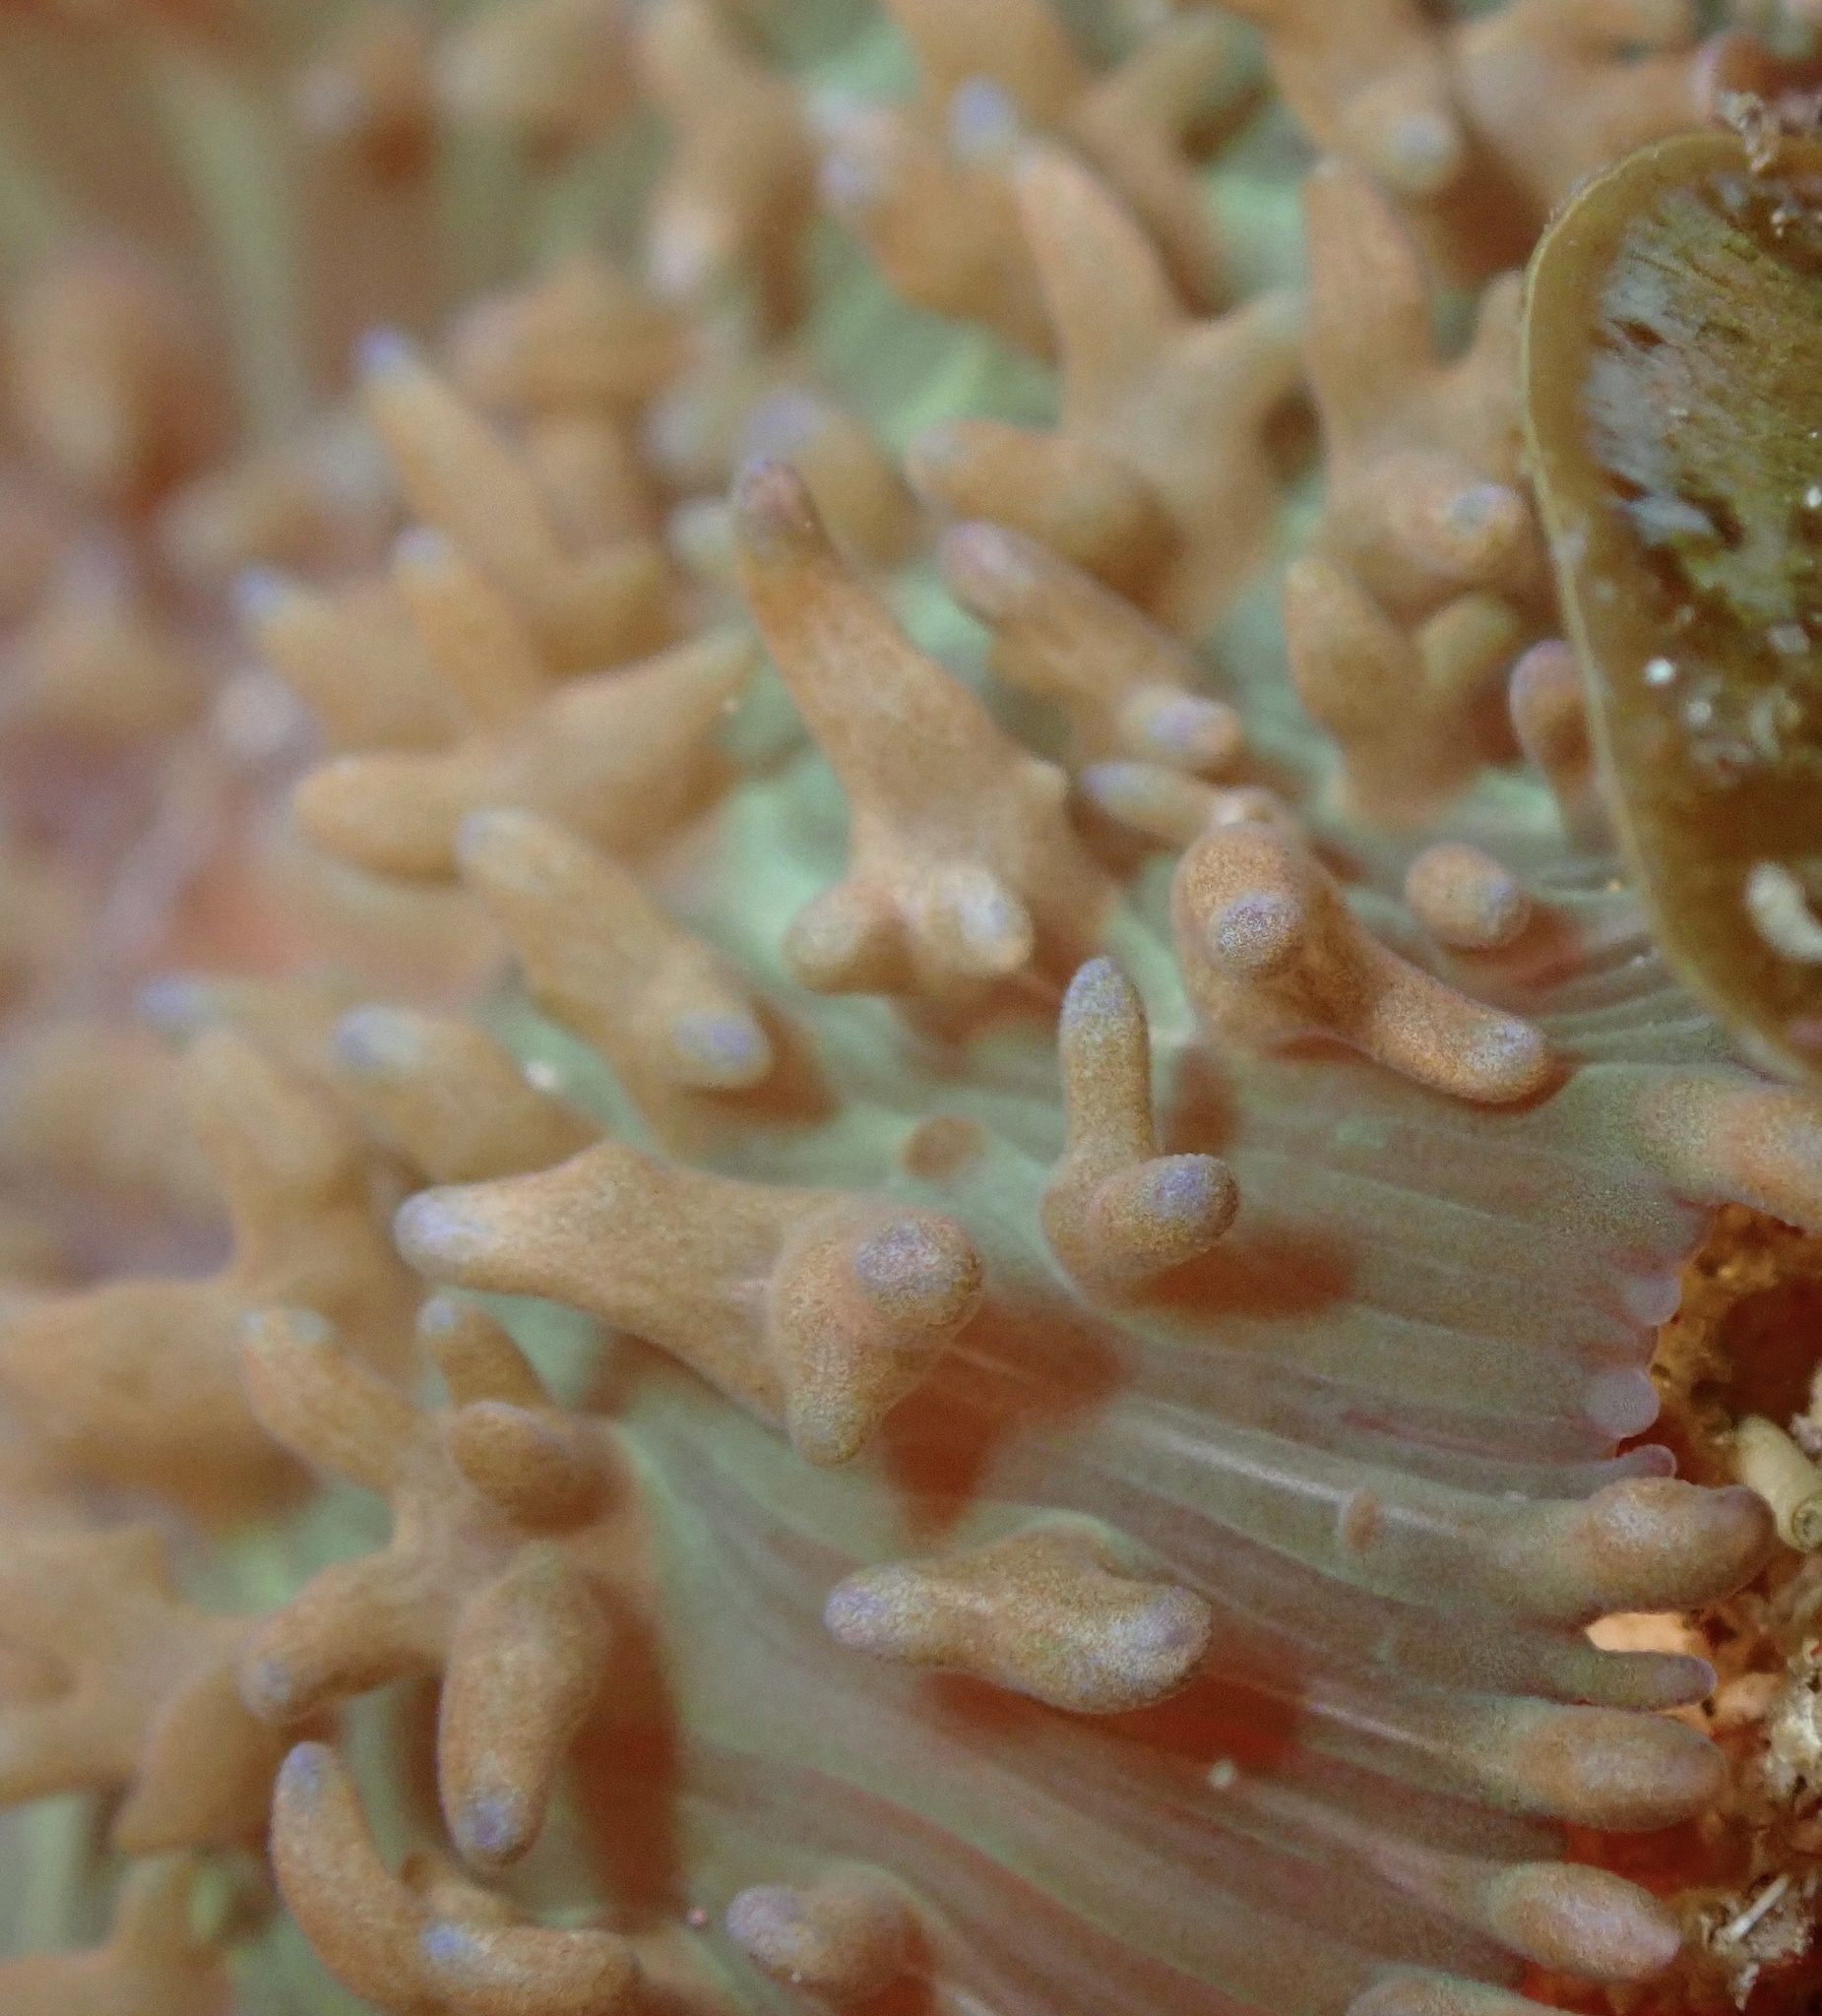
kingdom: Animalia
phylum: Cnidaria
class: Anthozoa
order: Corallimorpharia
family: Discosomidae
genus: Rhodactis
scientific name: Rhodactis rhodostoma
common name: Red-mouth mushroom anemone
